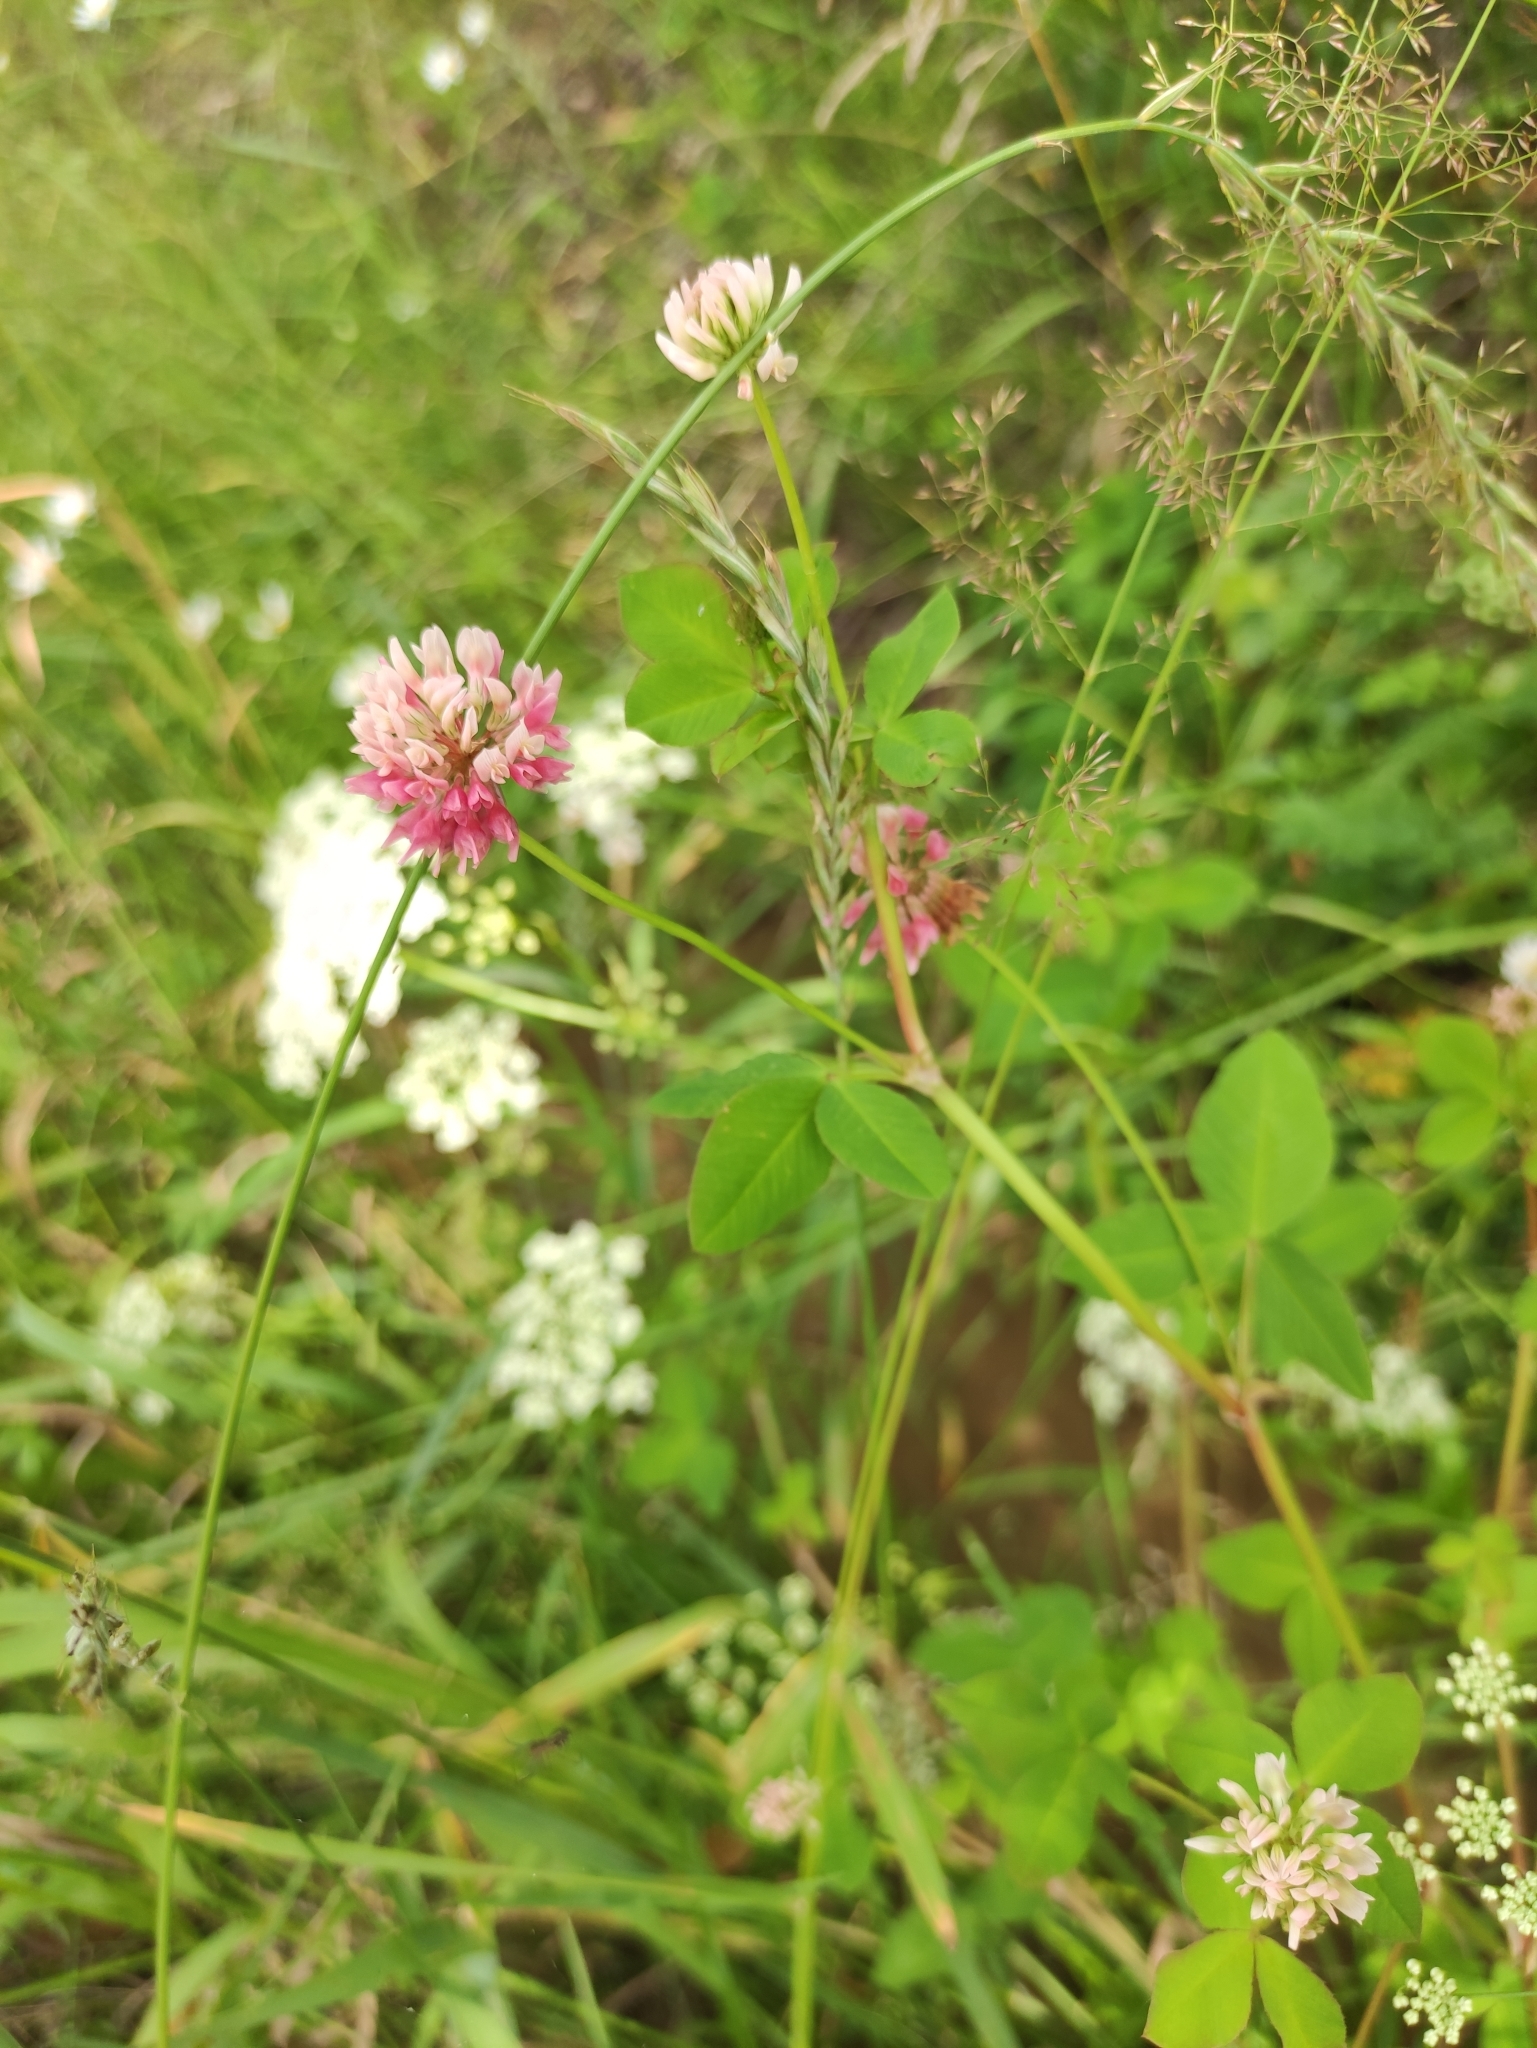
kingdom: Plantae
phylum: Tracheophyta
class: Magnoliopsida
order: Fabales
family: Fabaceae
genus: Trifolium
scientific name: Trifolium hybridum
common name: Alsike clover
